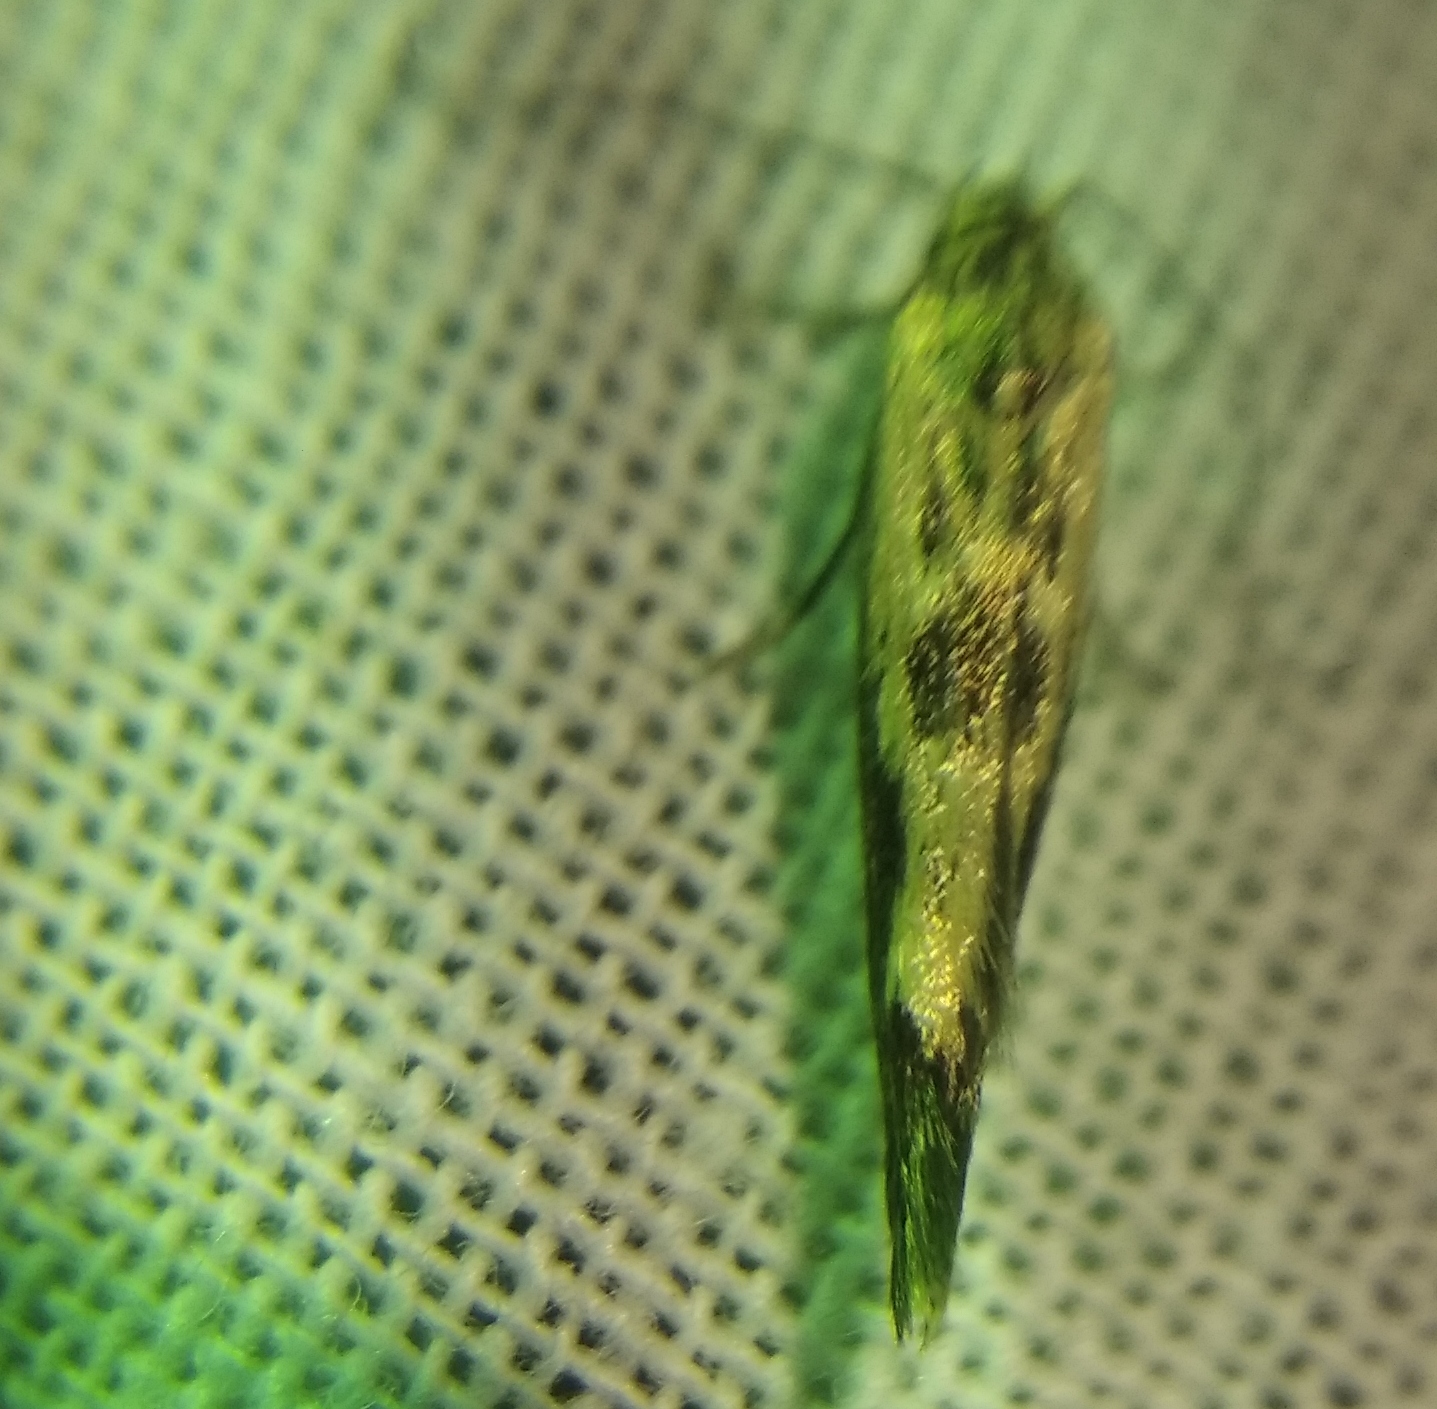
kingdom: Animalia
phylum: Arthropoda
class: Insecta
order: Lepidoptera
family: Scythrididae
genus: Scythris
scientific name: Scythris limbella
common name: Goosefoot owlet
